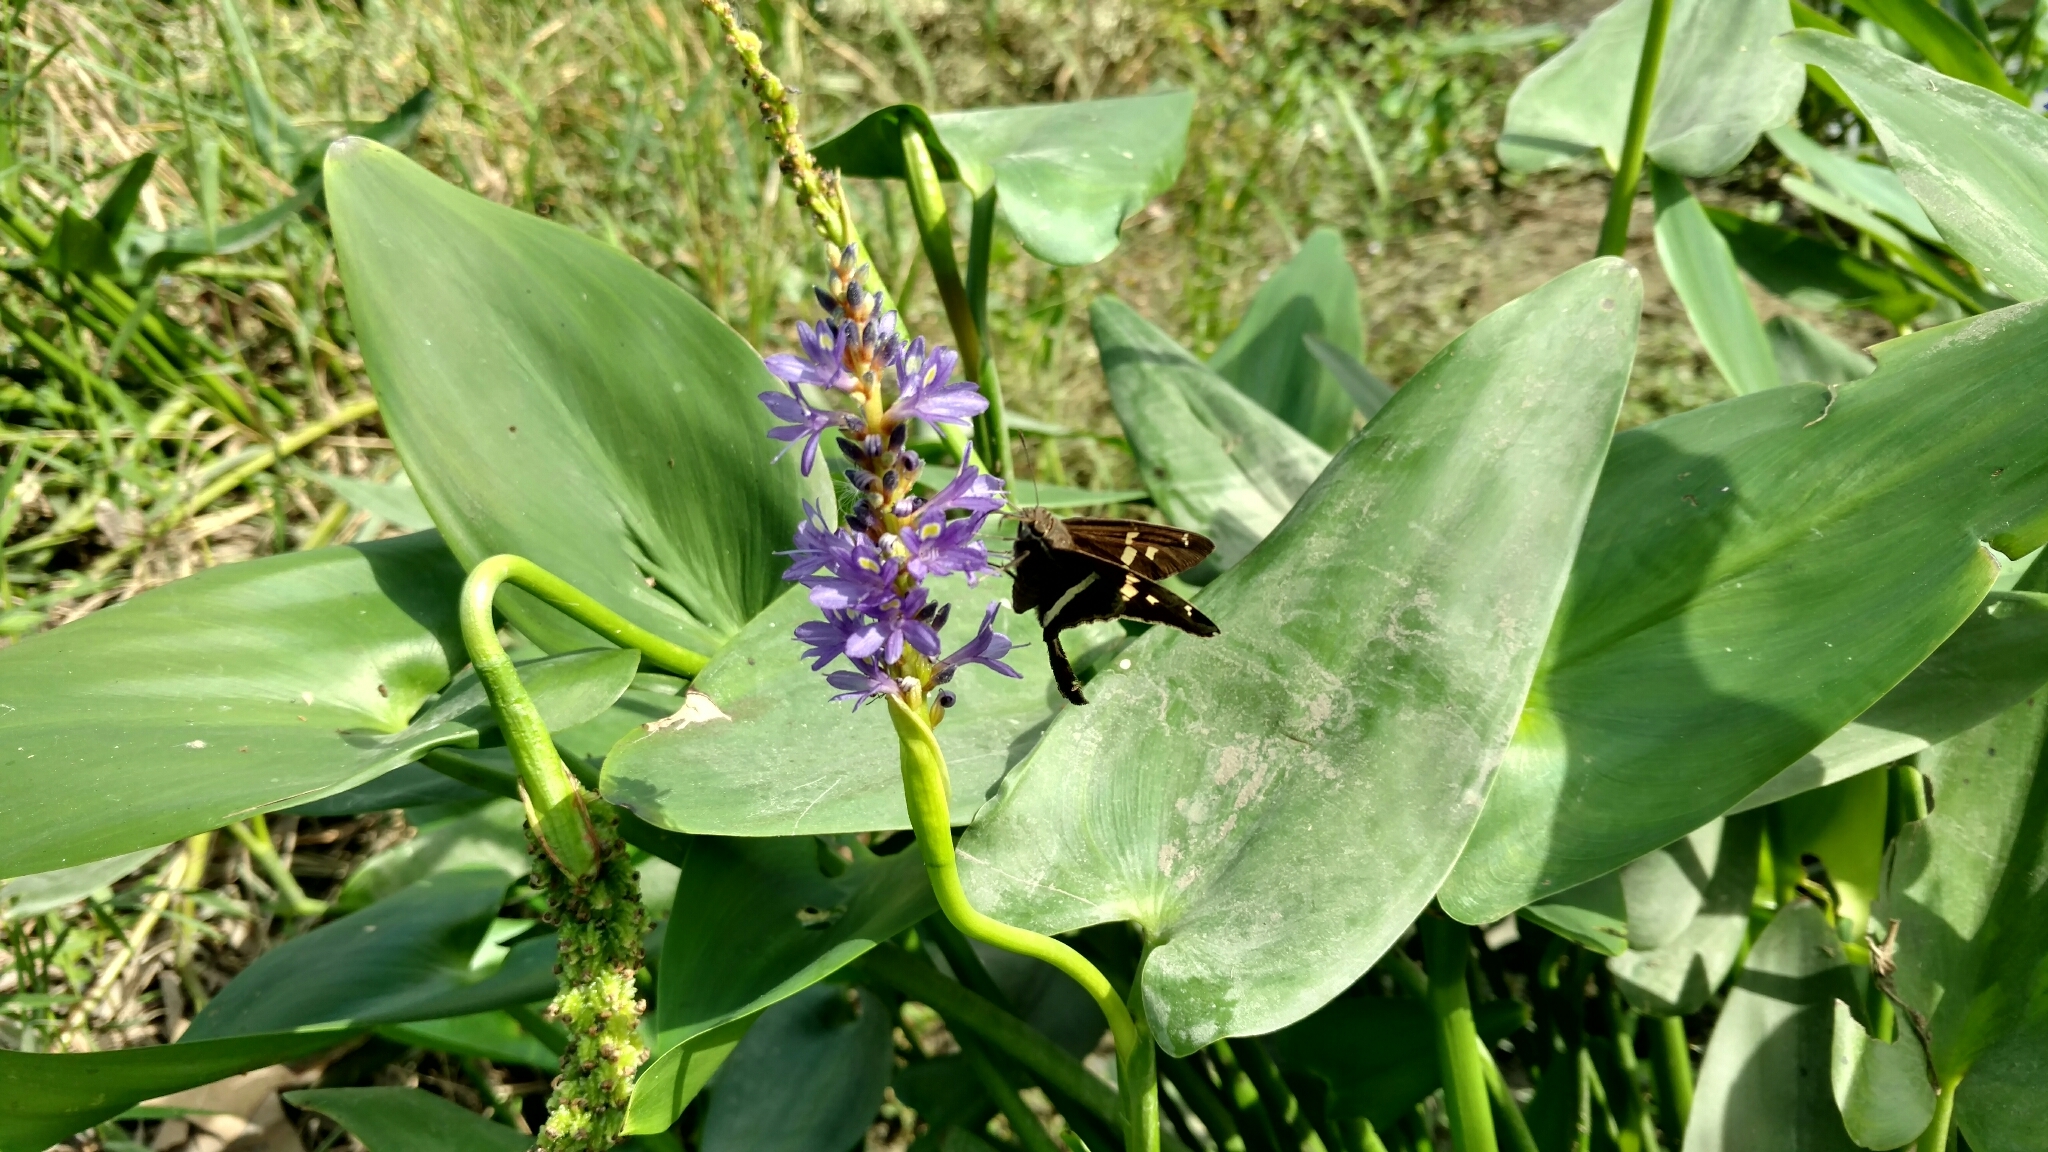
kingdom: Plantae
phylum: Tracheophyta
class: Liliopsida
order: Commelinales
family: Pontederiaceae
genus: Pontederia
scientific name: Pontederia cordata
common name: Pickerelweed
